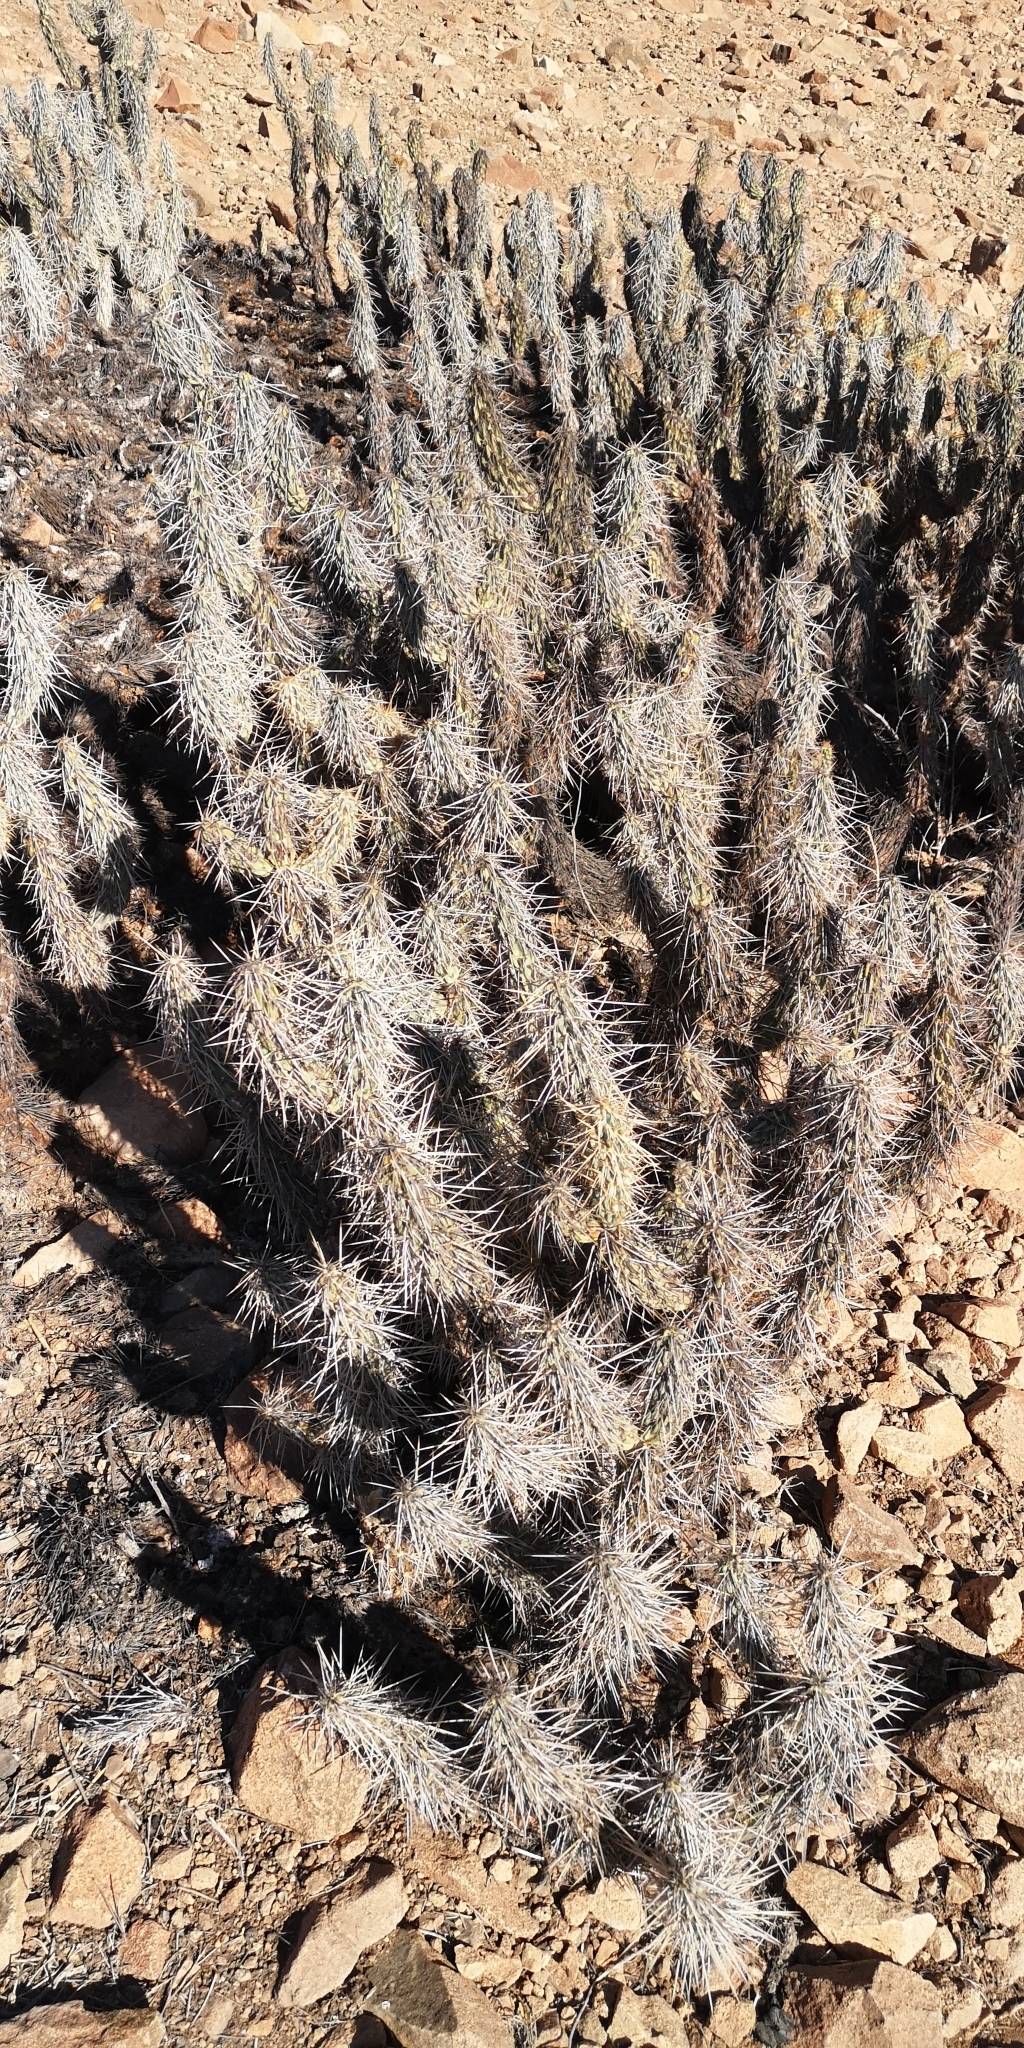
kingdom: Plantae
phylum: Tracheophyta
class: Magnoliopsida
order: Caryophyllales
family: Cactaceae
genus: Miqueliopuntia
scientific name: Miqueliopuntia miquelii
